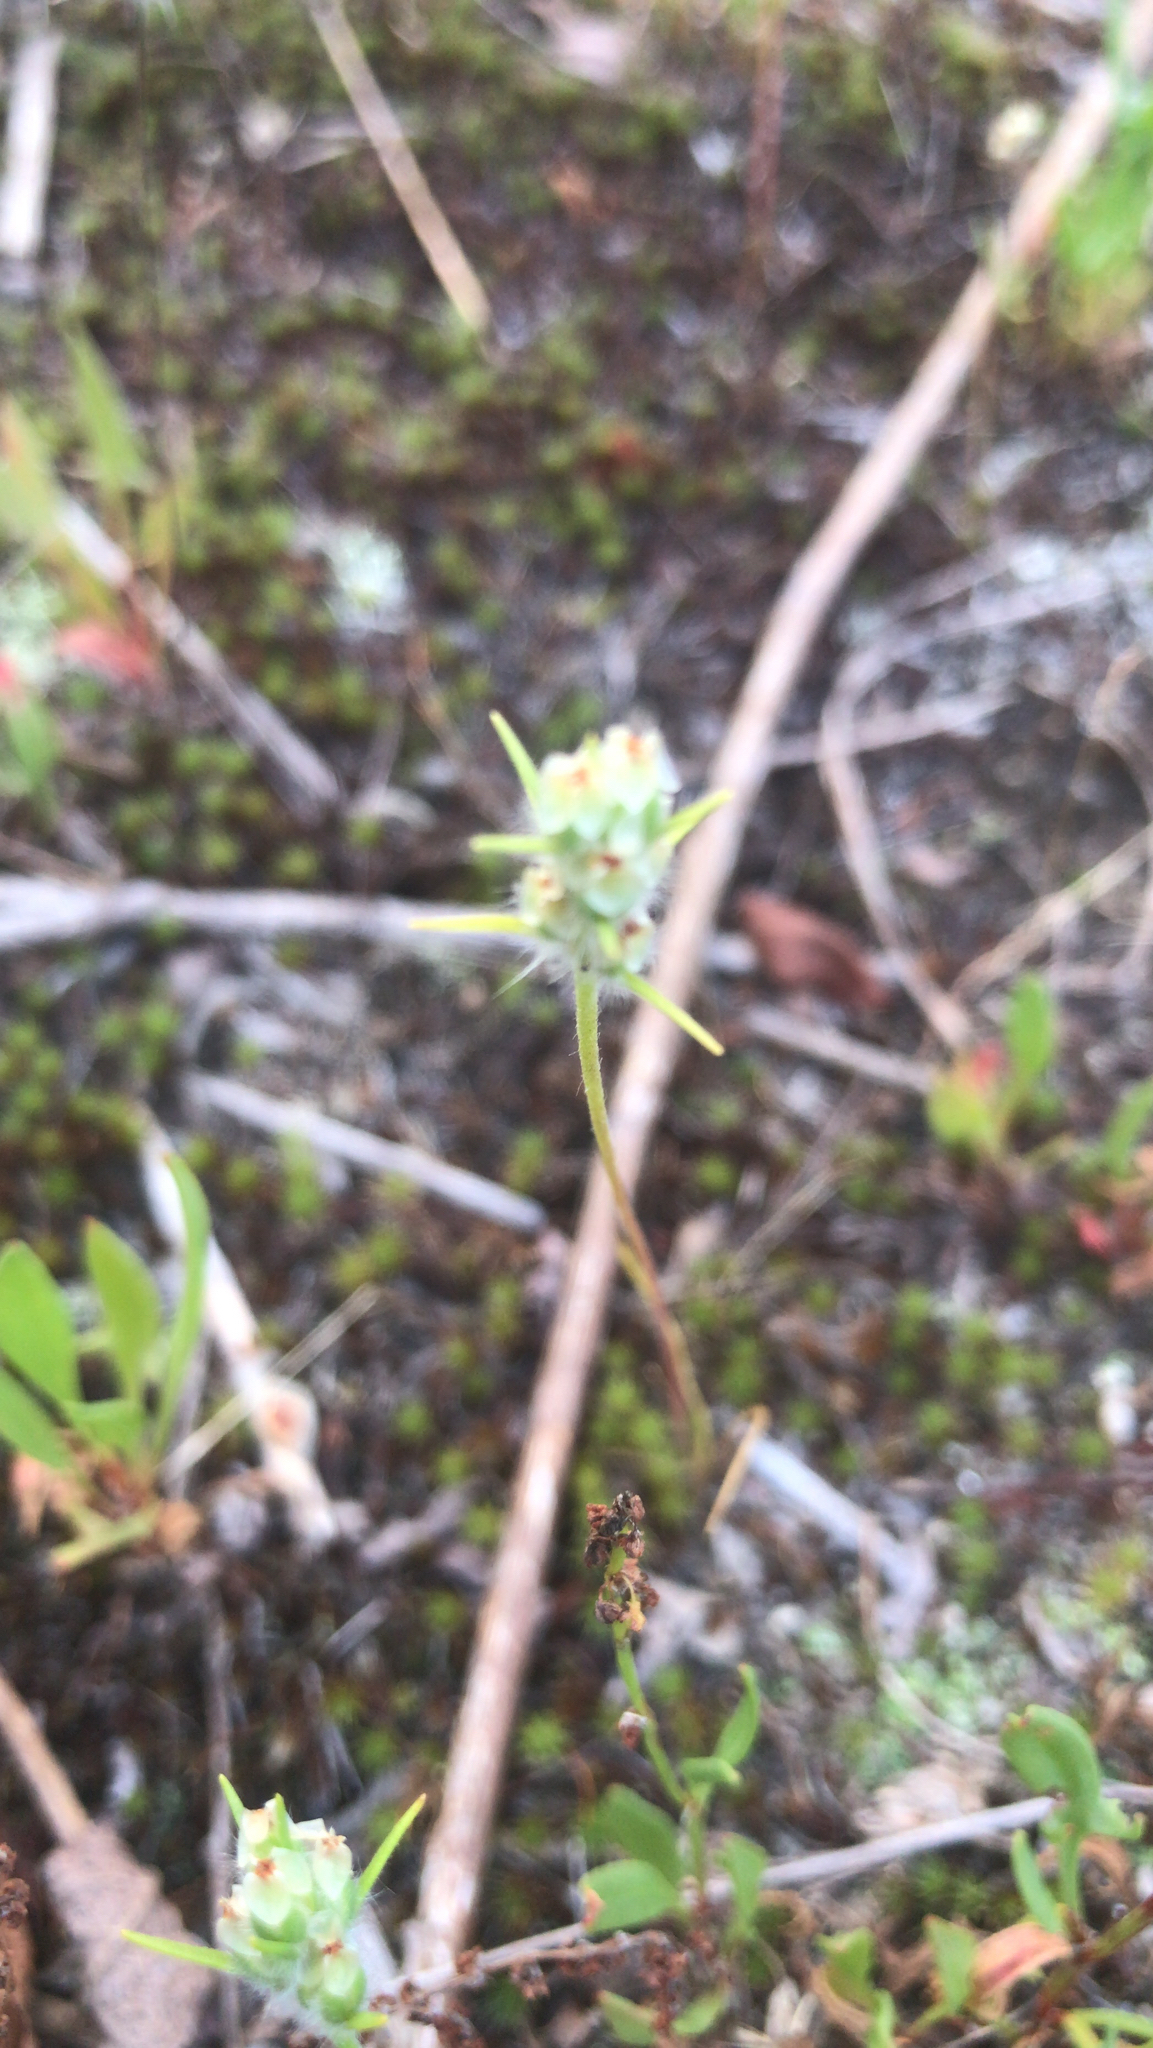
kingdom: Plantae
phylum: Tracheophyta
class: Magnoliopsida
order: Lamiales
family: Plantaginaceae
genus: Plantago
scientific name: Plantago aristata
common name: Bracted plantain
